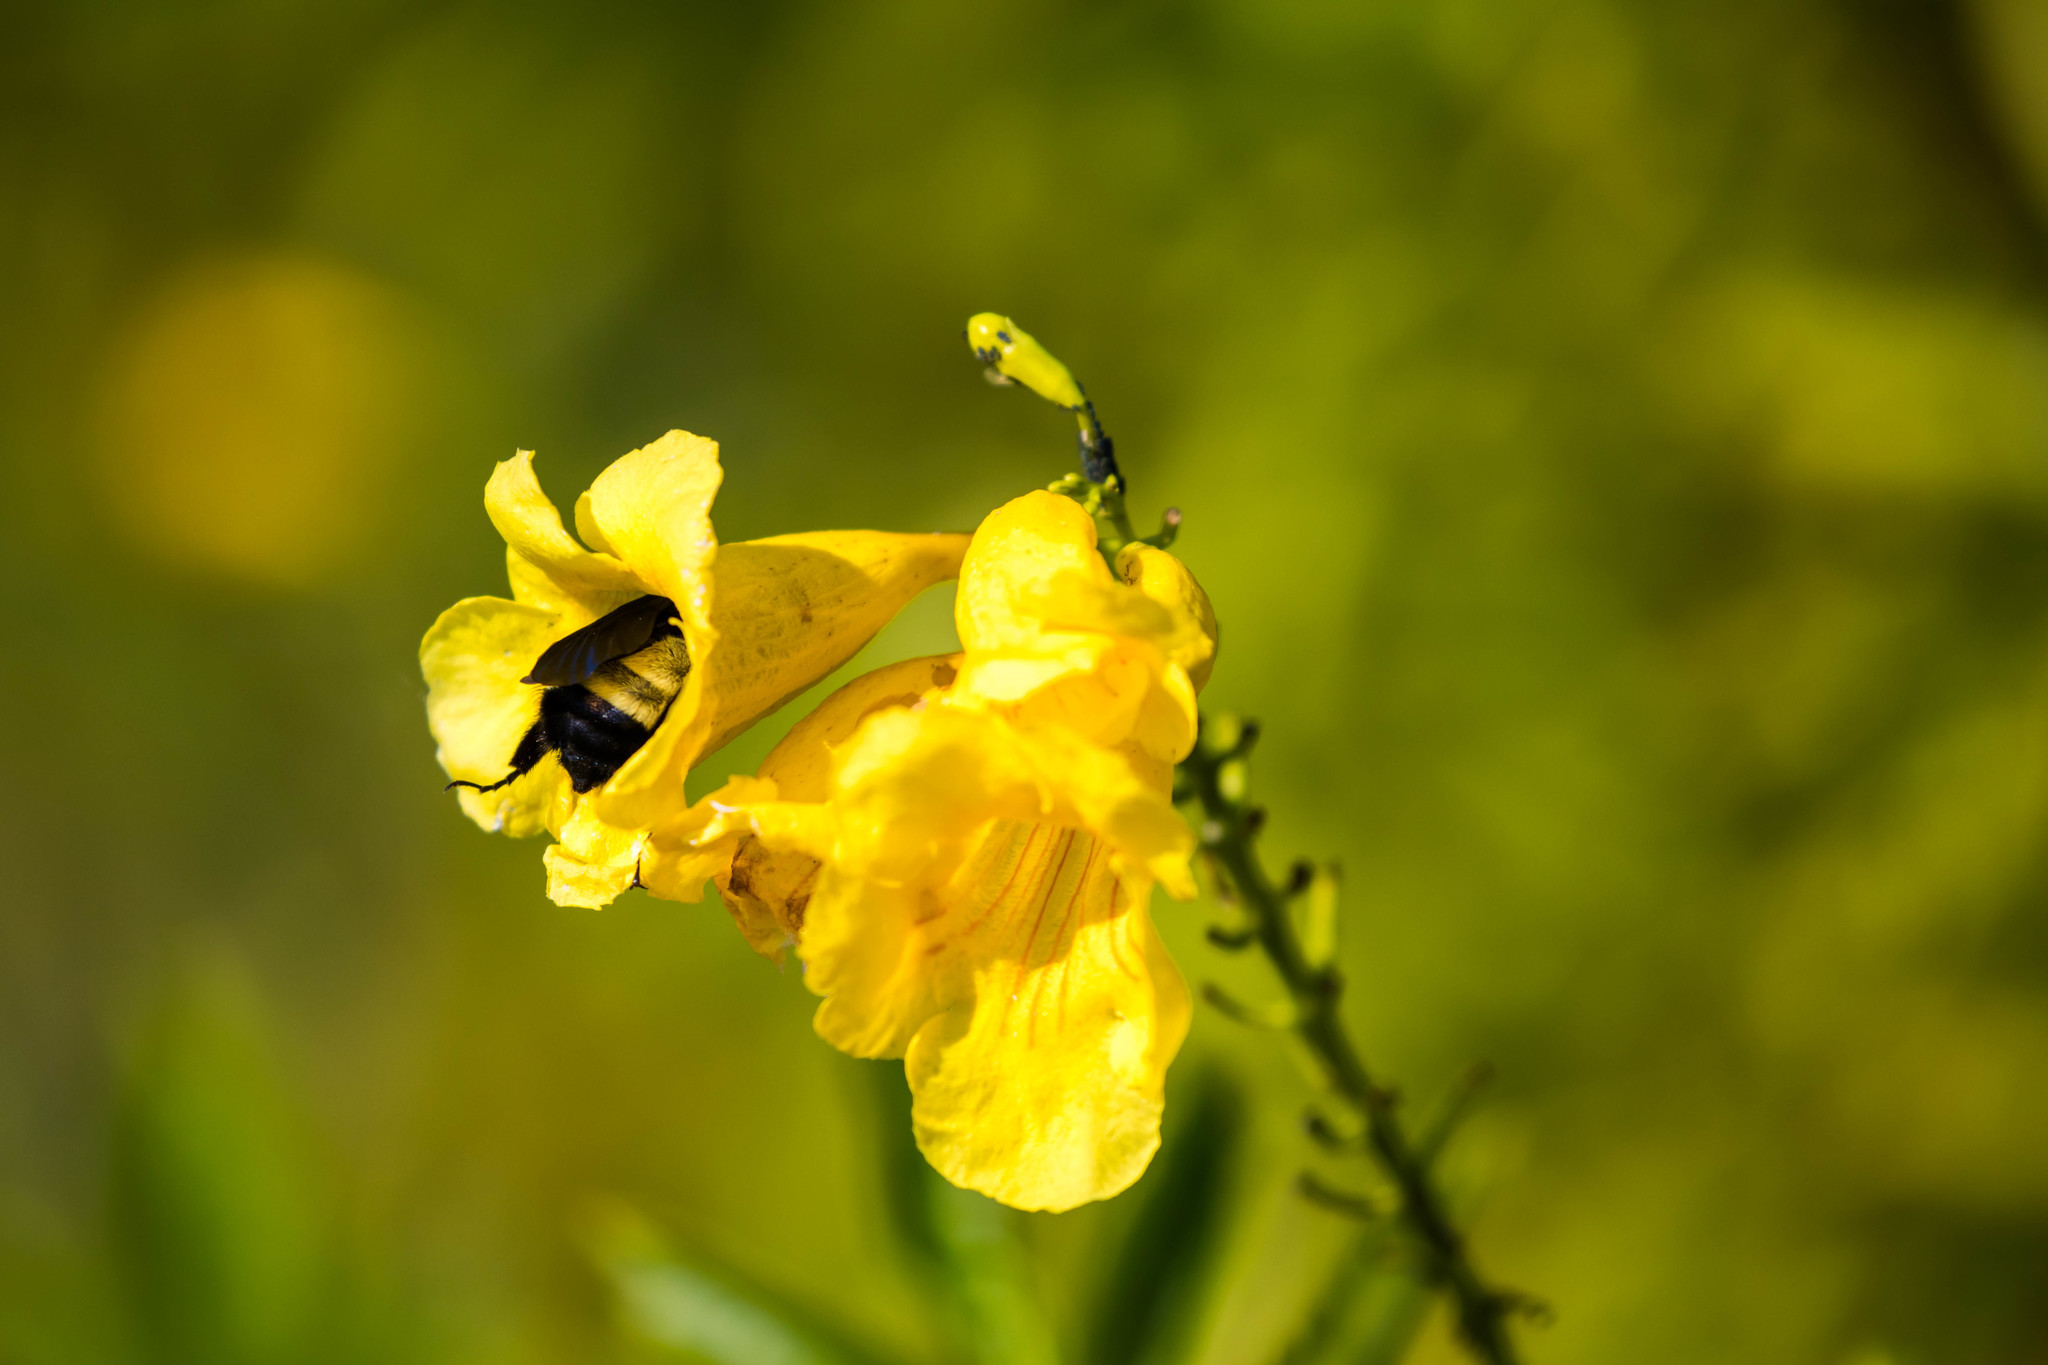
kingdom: Animalia
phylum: Arthropoda
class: Insecta
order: Hymenoptera
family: Apidae
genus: Bombus
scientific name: Bombus pensylvanicus
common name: Bumble bee
